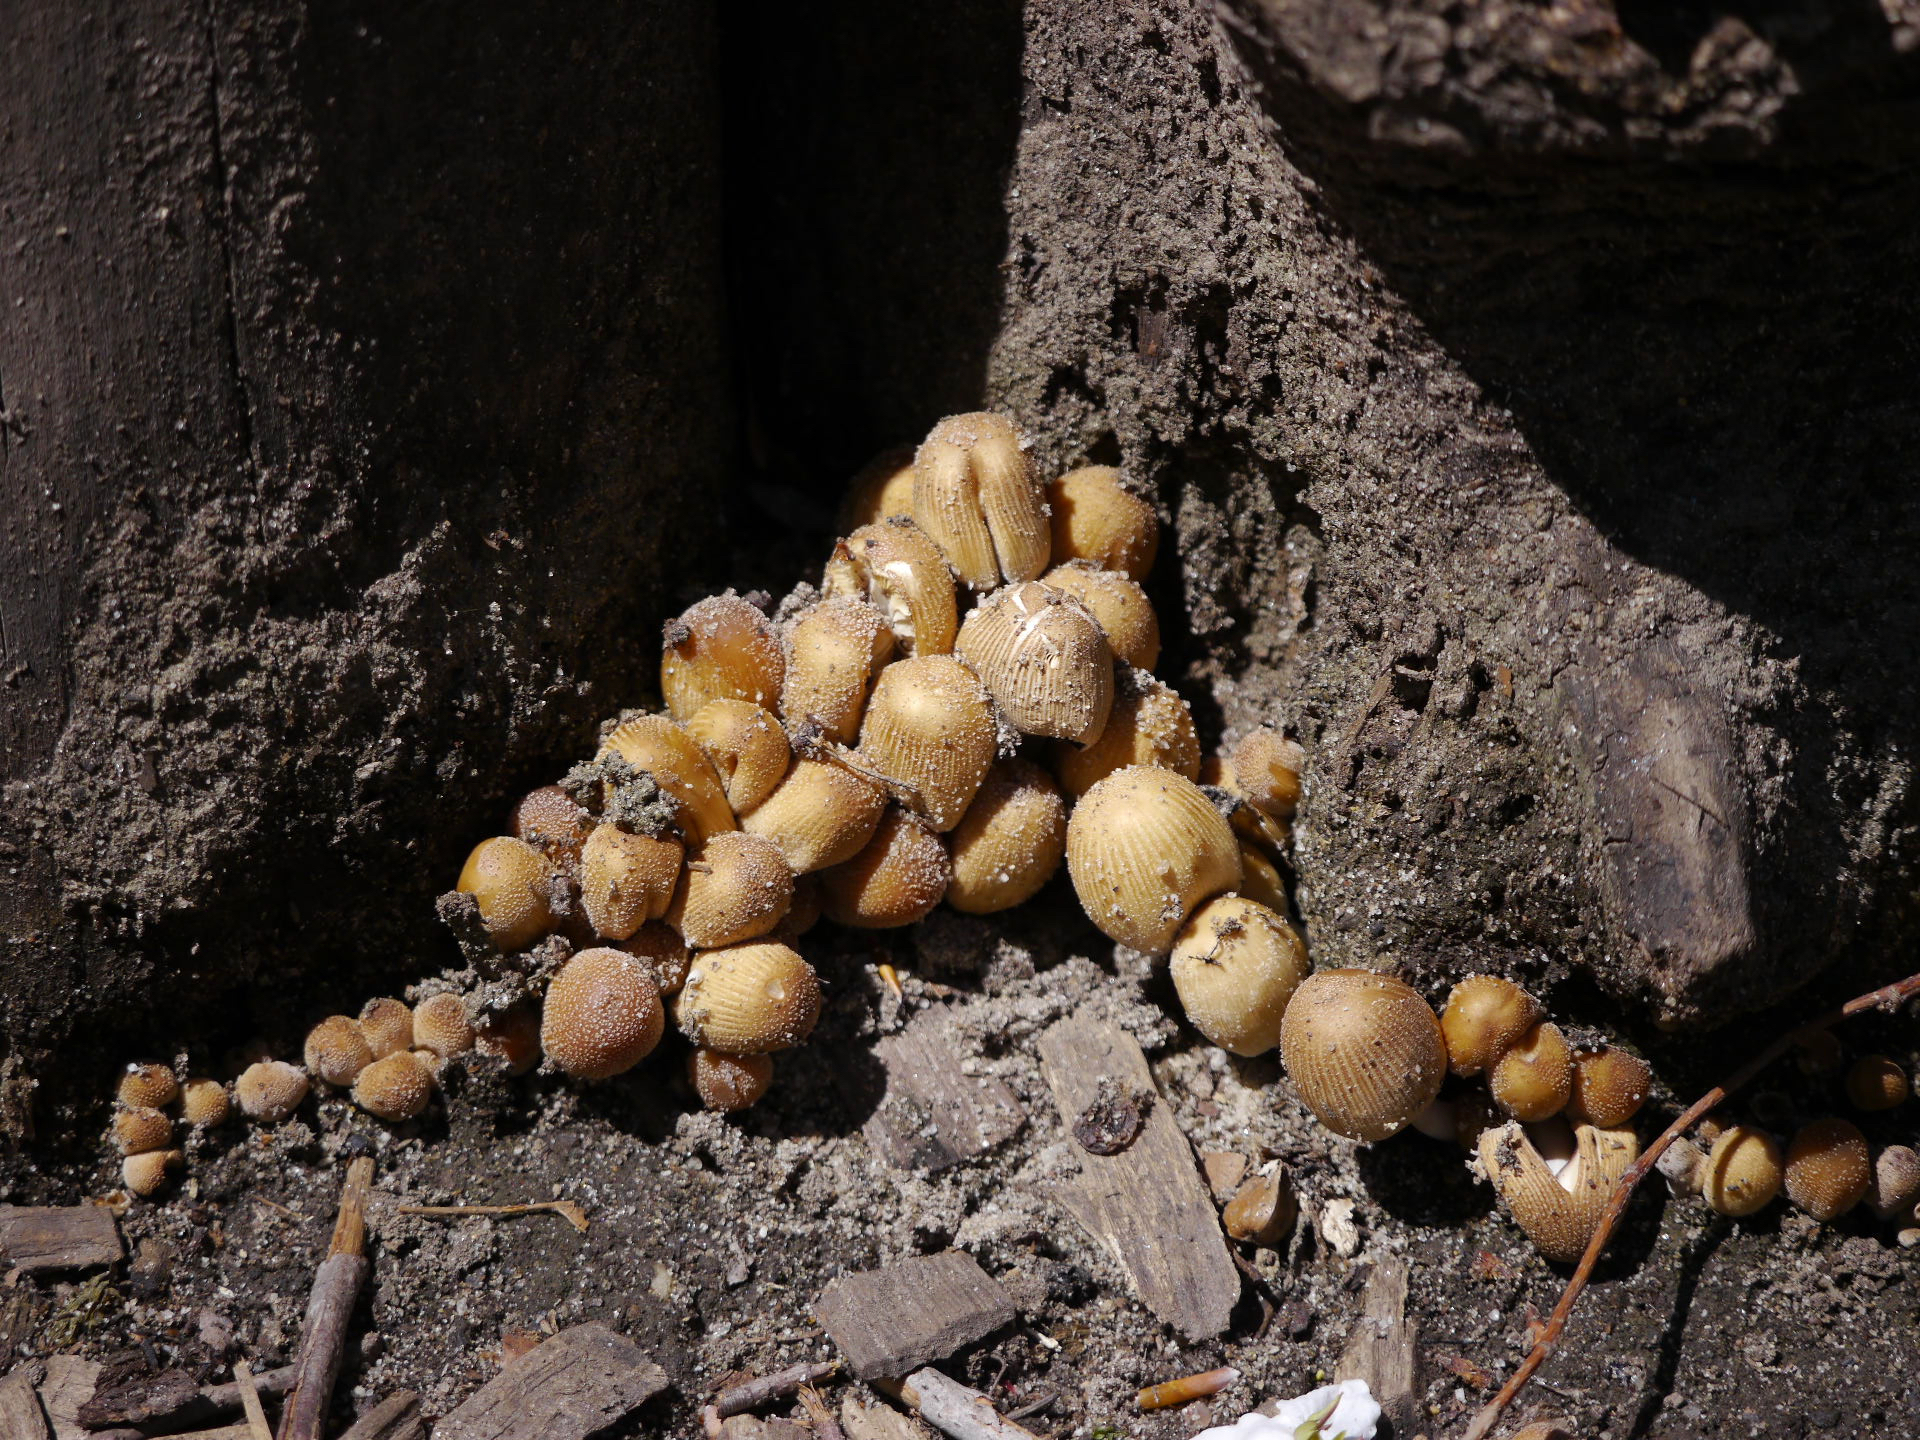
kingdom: Fungi
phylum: Basidiomycota
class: Agaricomycetes
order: Agaricales
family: Psathyrellaceae
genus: Coprinellus
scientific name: Coprinellus micaceus
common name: Glistening ink-cap
